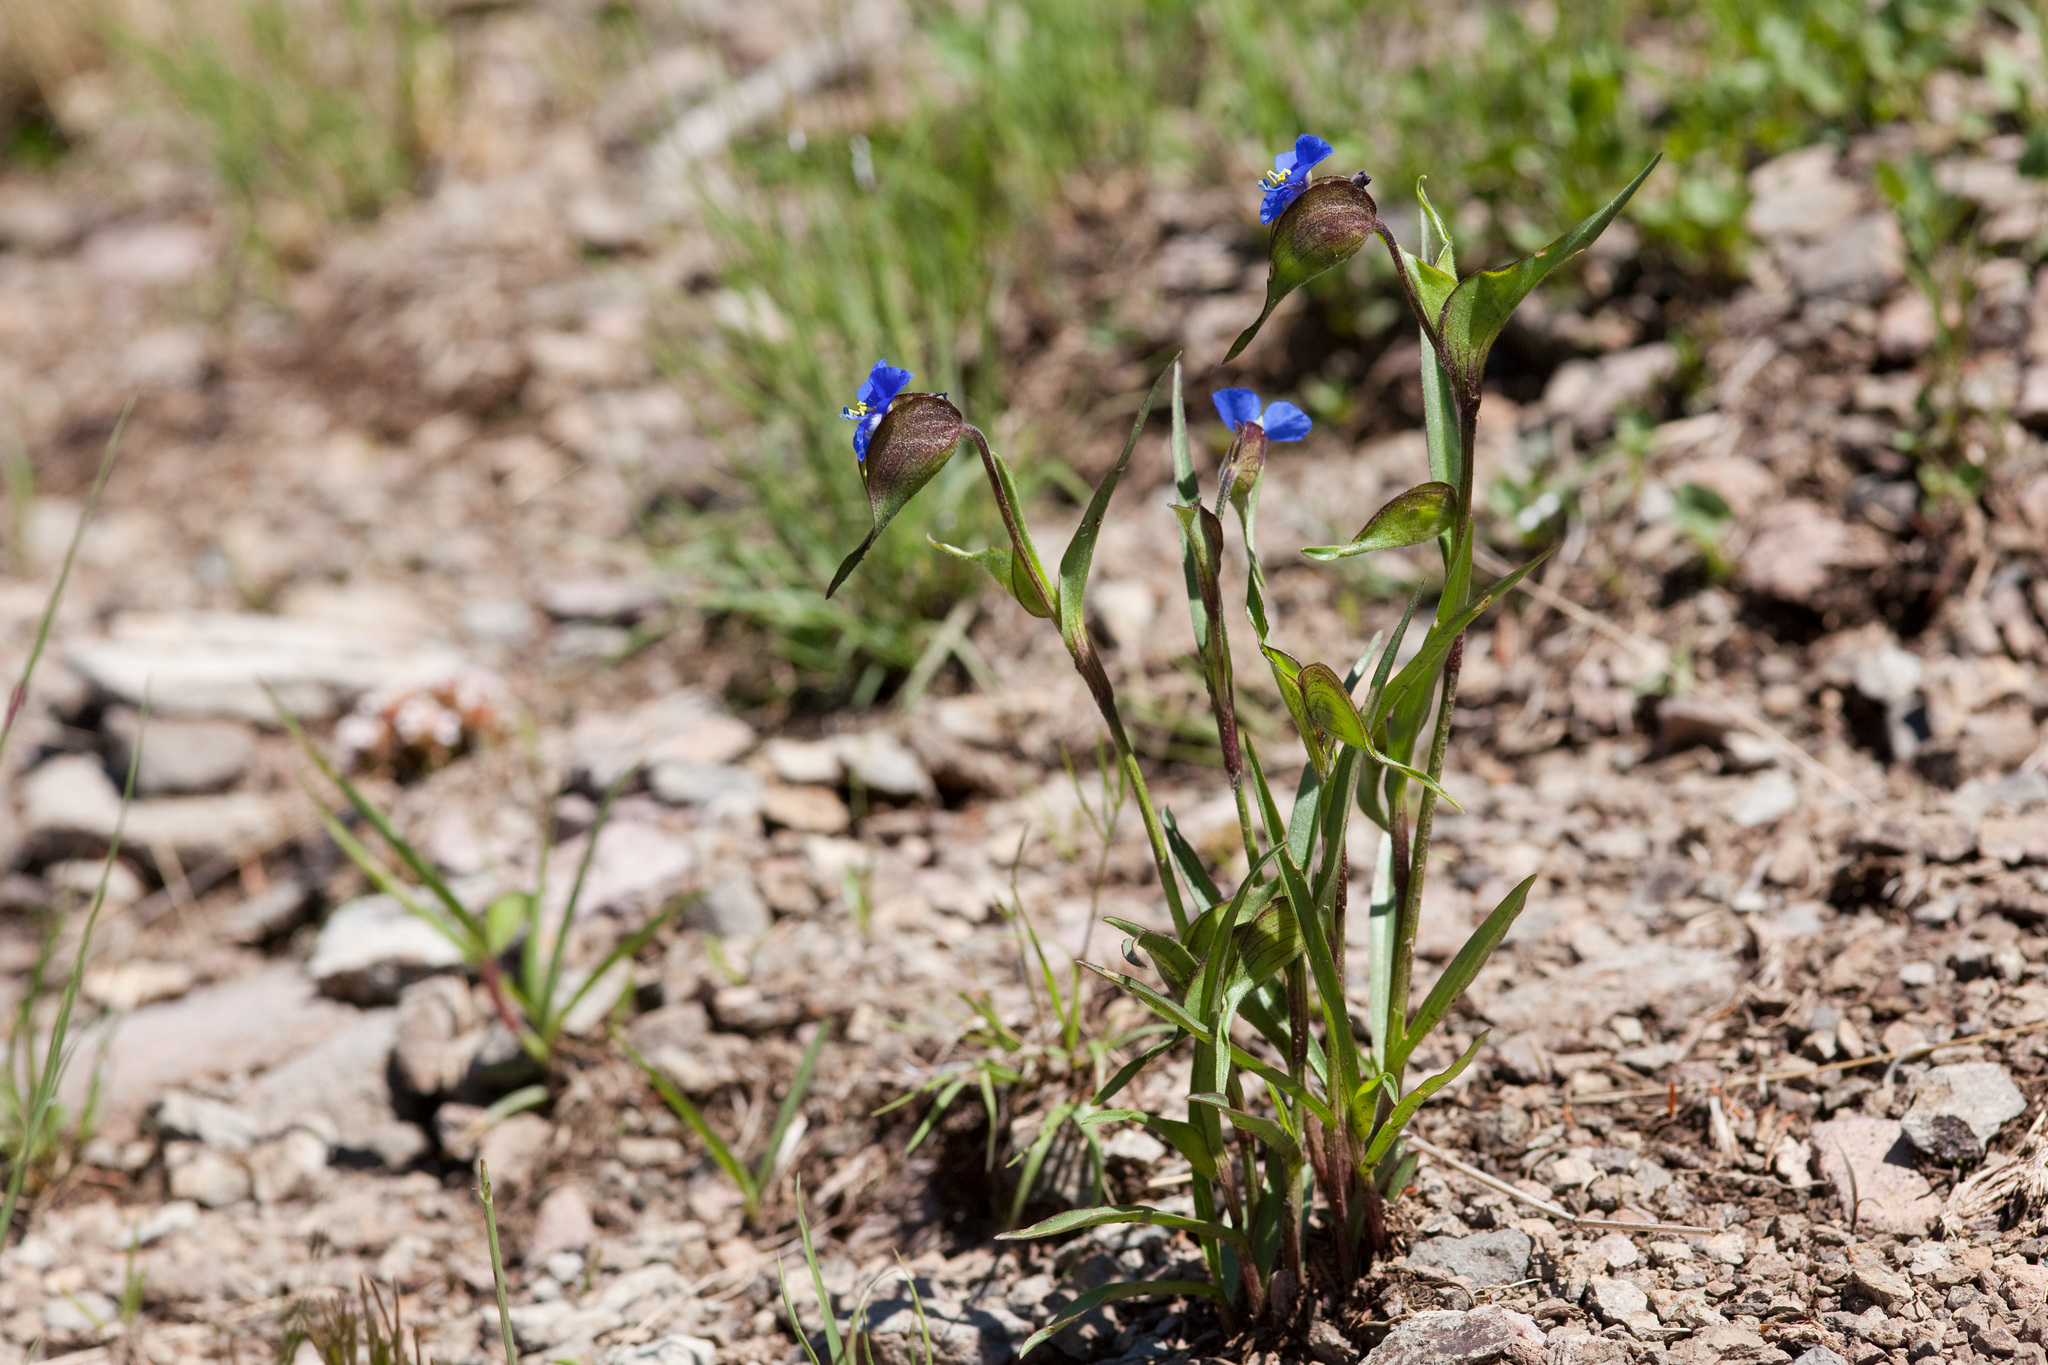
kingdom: Plantae
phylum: Tracheophyta
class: Liliopsida
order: Commelinales
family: Commelinaceae
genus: Commelina
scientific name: Commelina dianthifolia
